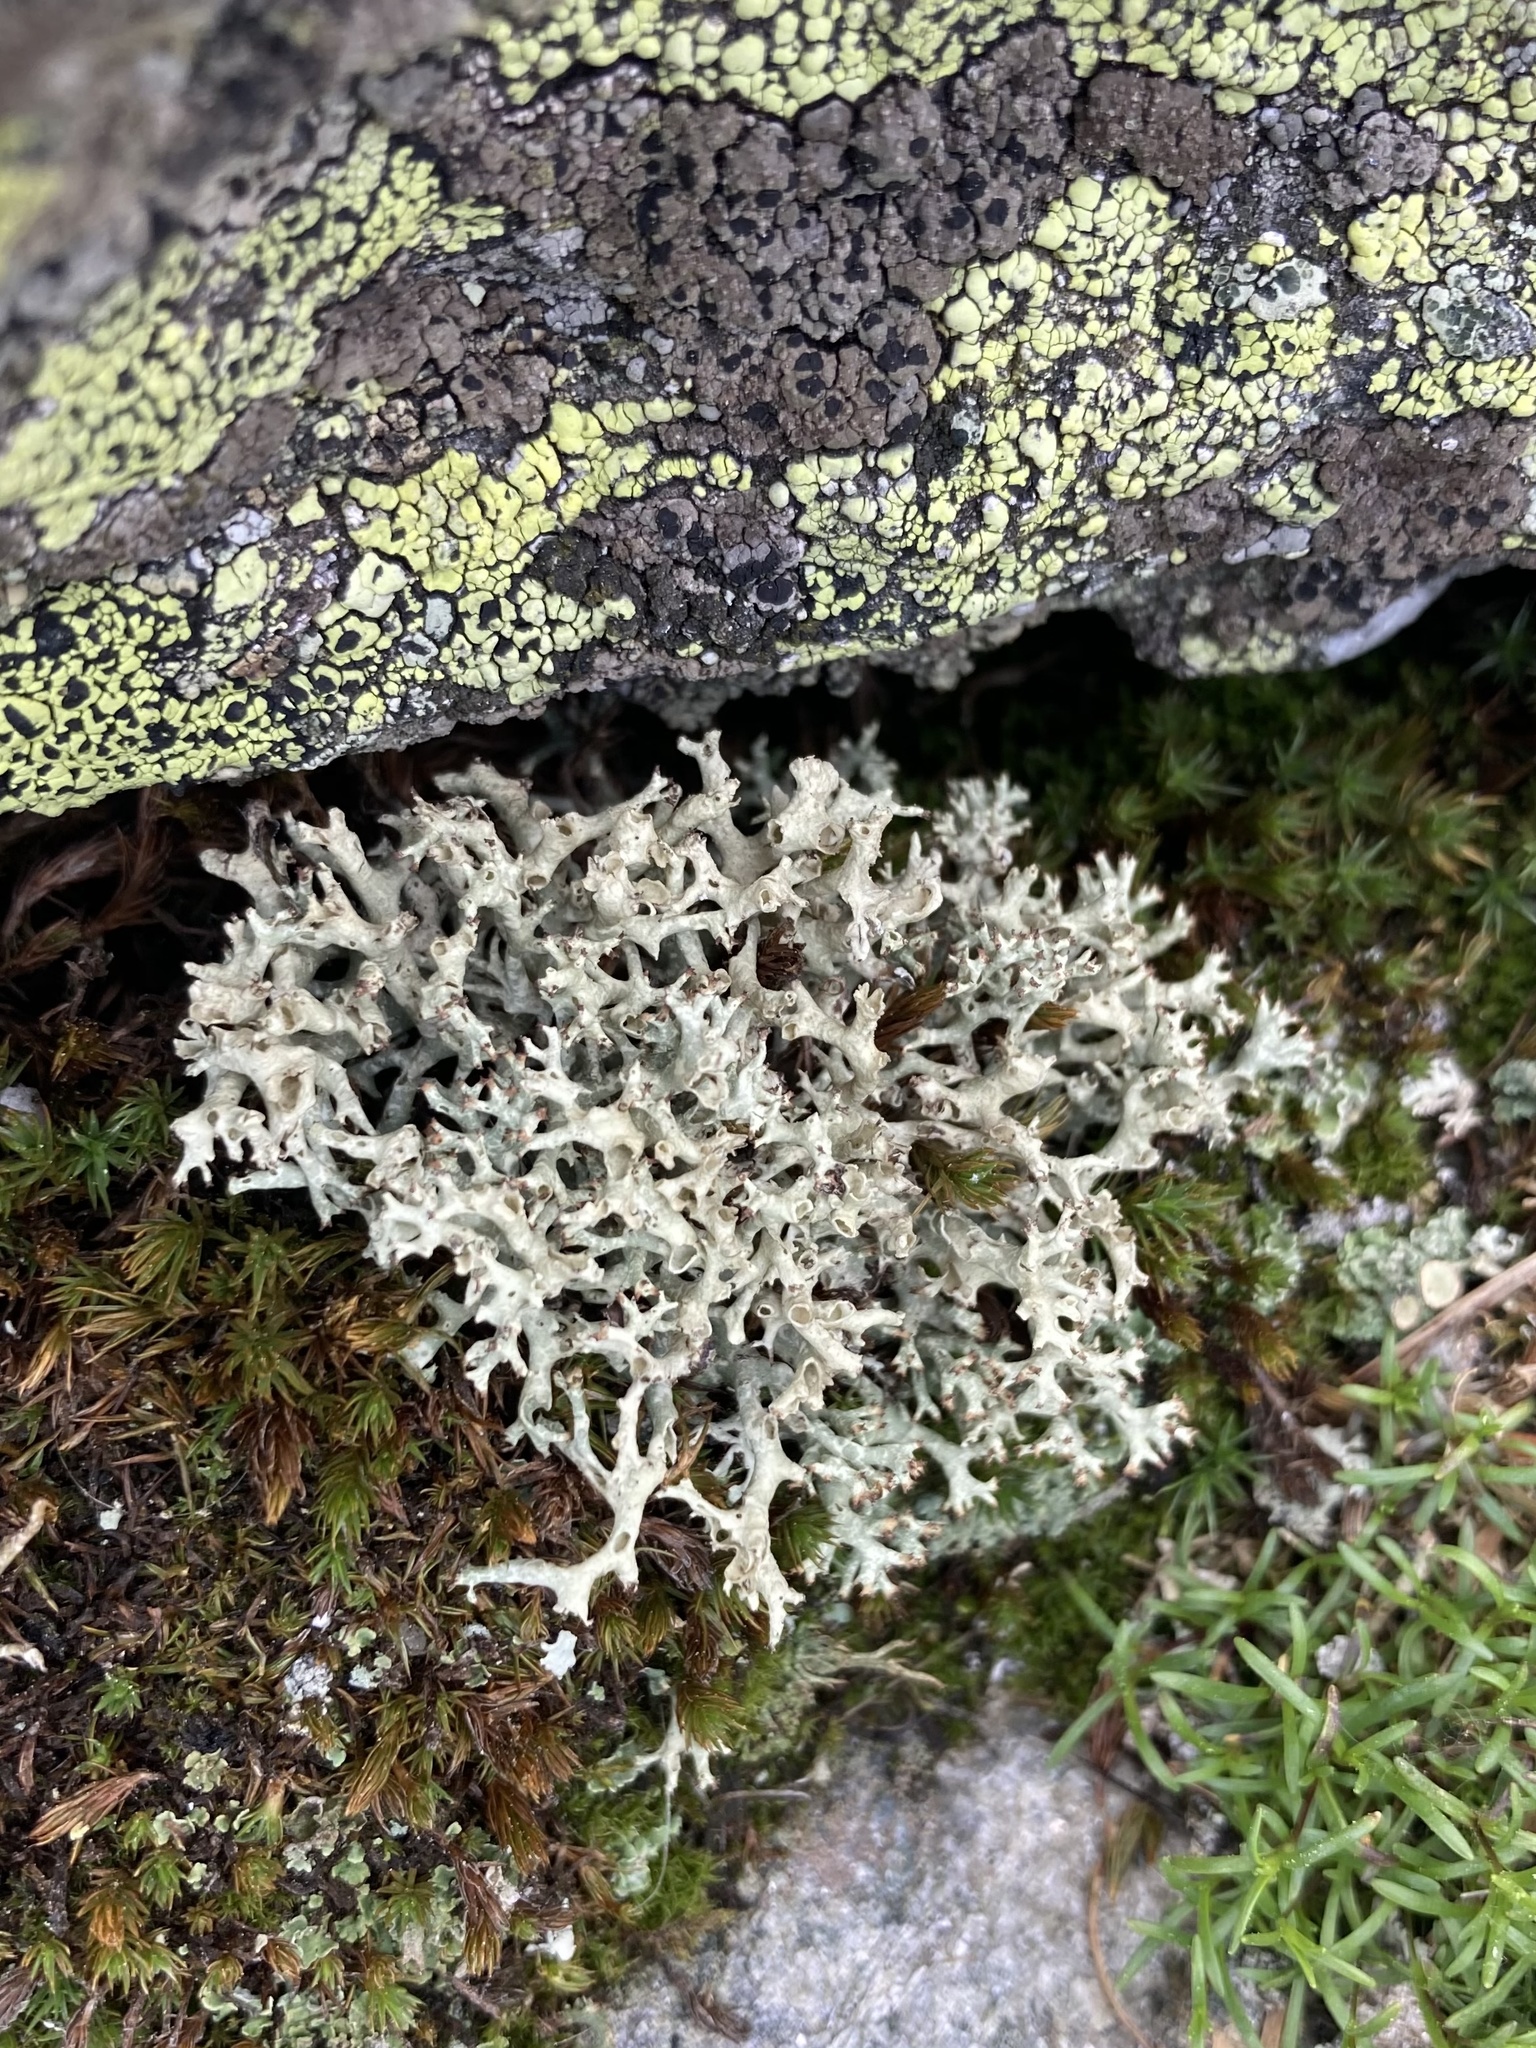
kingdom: Fungi
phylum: Ascomycota
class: Lecanoromycetes
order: Lecanorales
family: Cladoniaceae
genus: Cladonia
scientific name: Cladonia uncialis
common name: Thorn lichen
